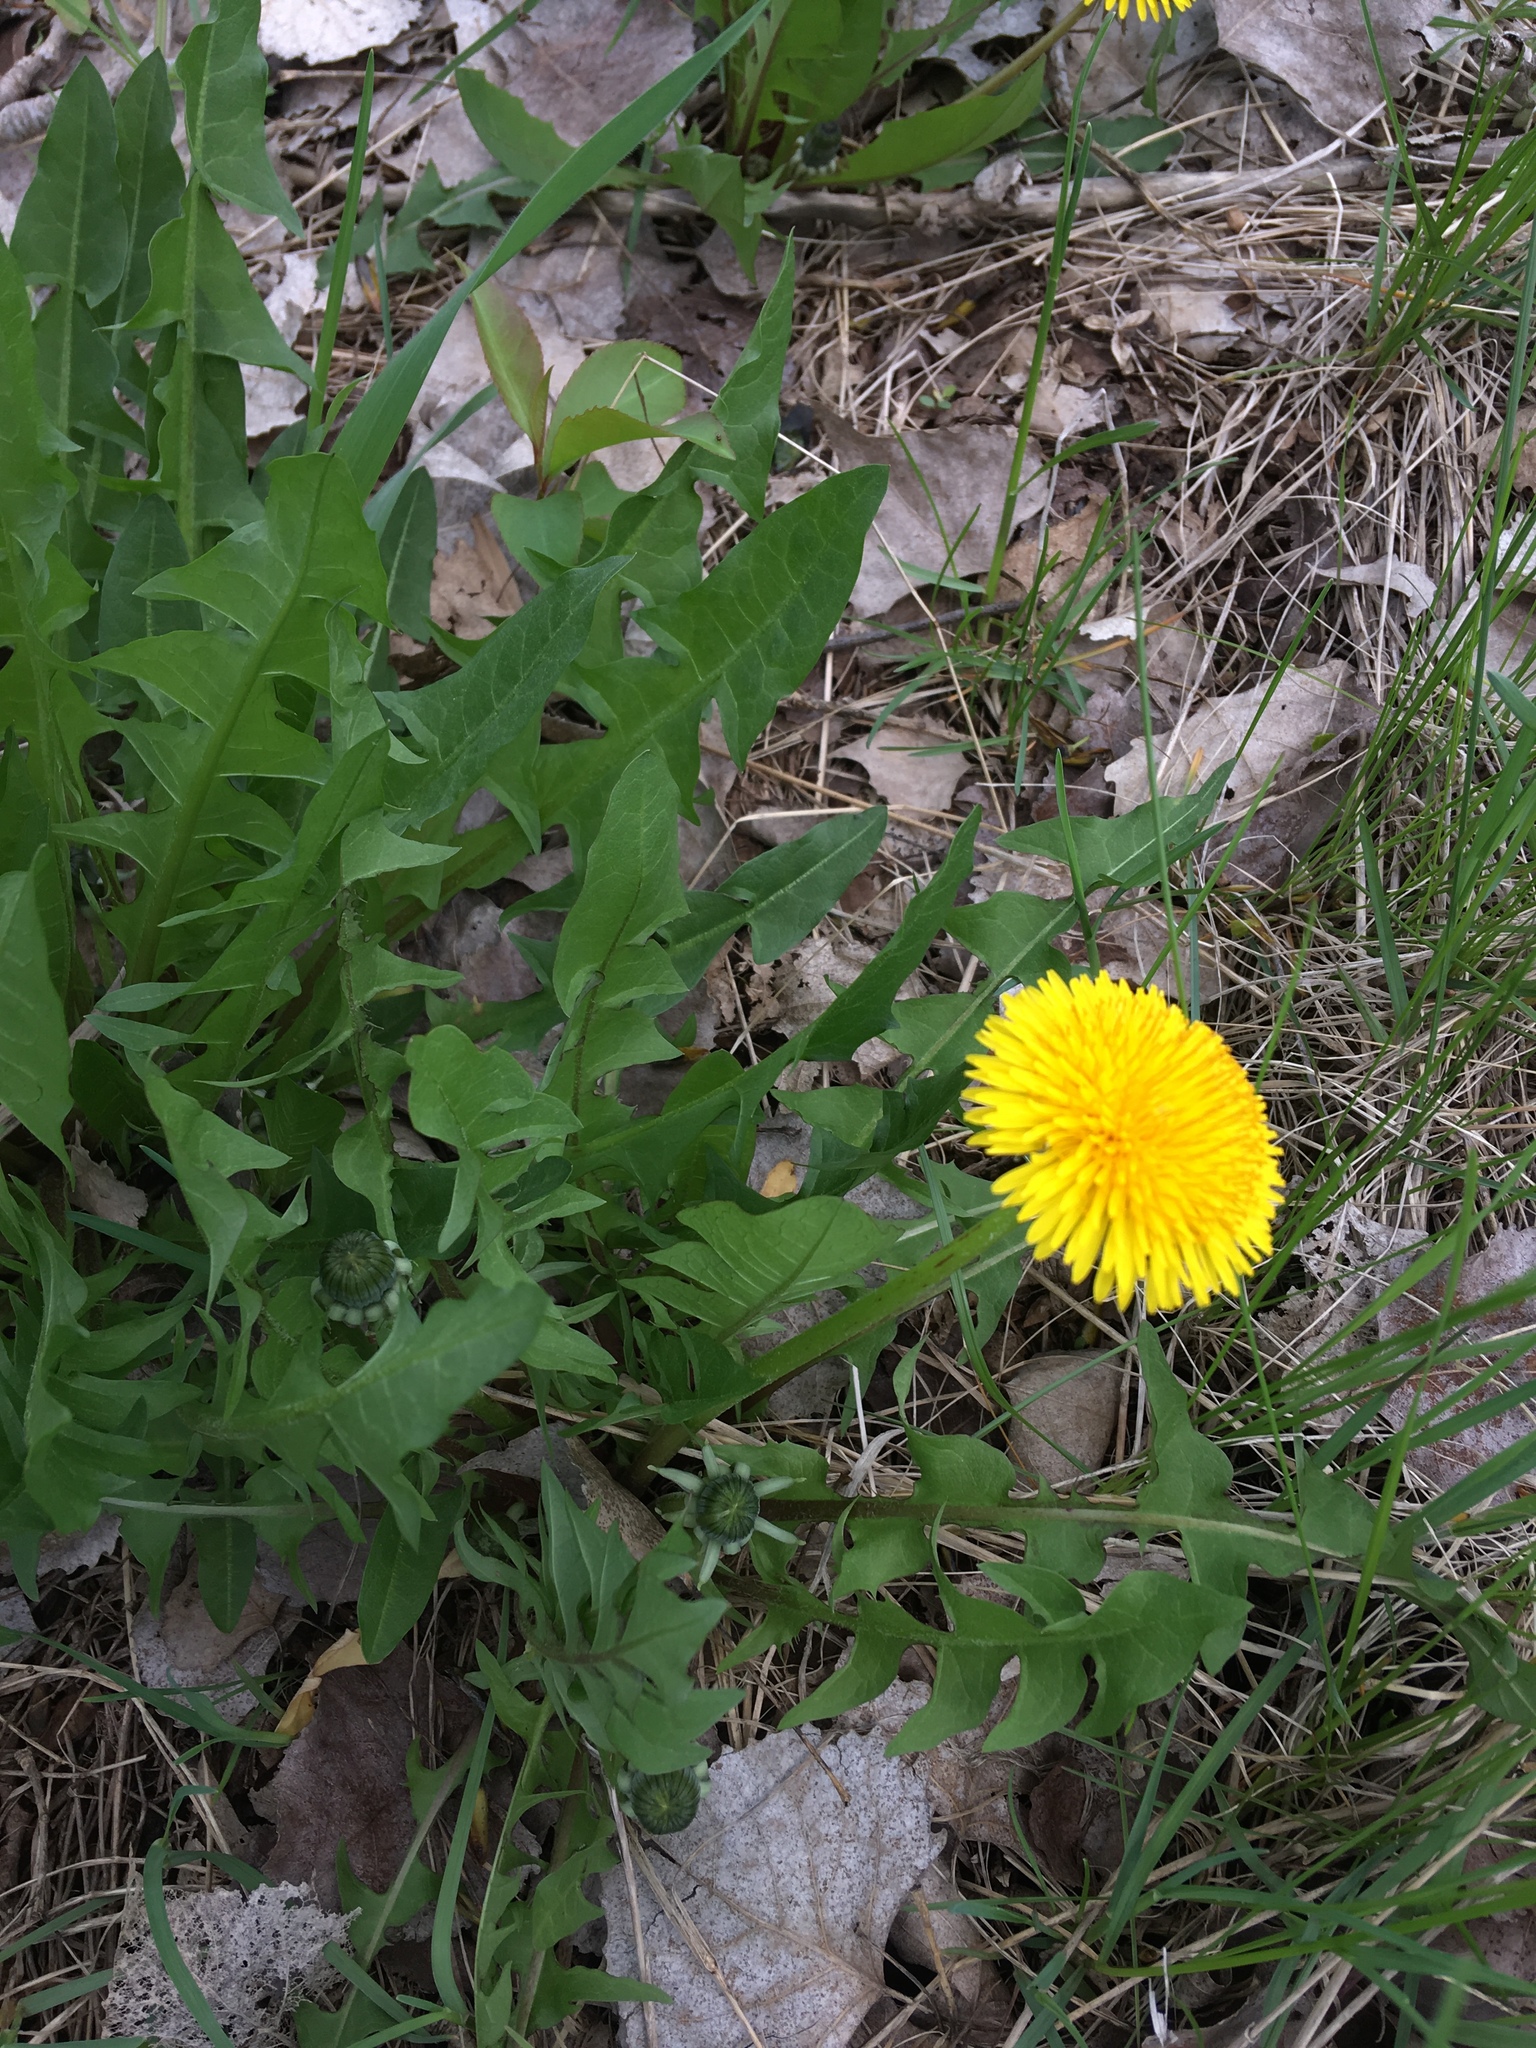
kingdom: Plantae
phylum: Tracheophyta
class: Magnoliopsida
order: Asterales
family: Asteraceae
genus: Taraxacum
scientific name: Taraxacum officinale
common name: Common dandelion
